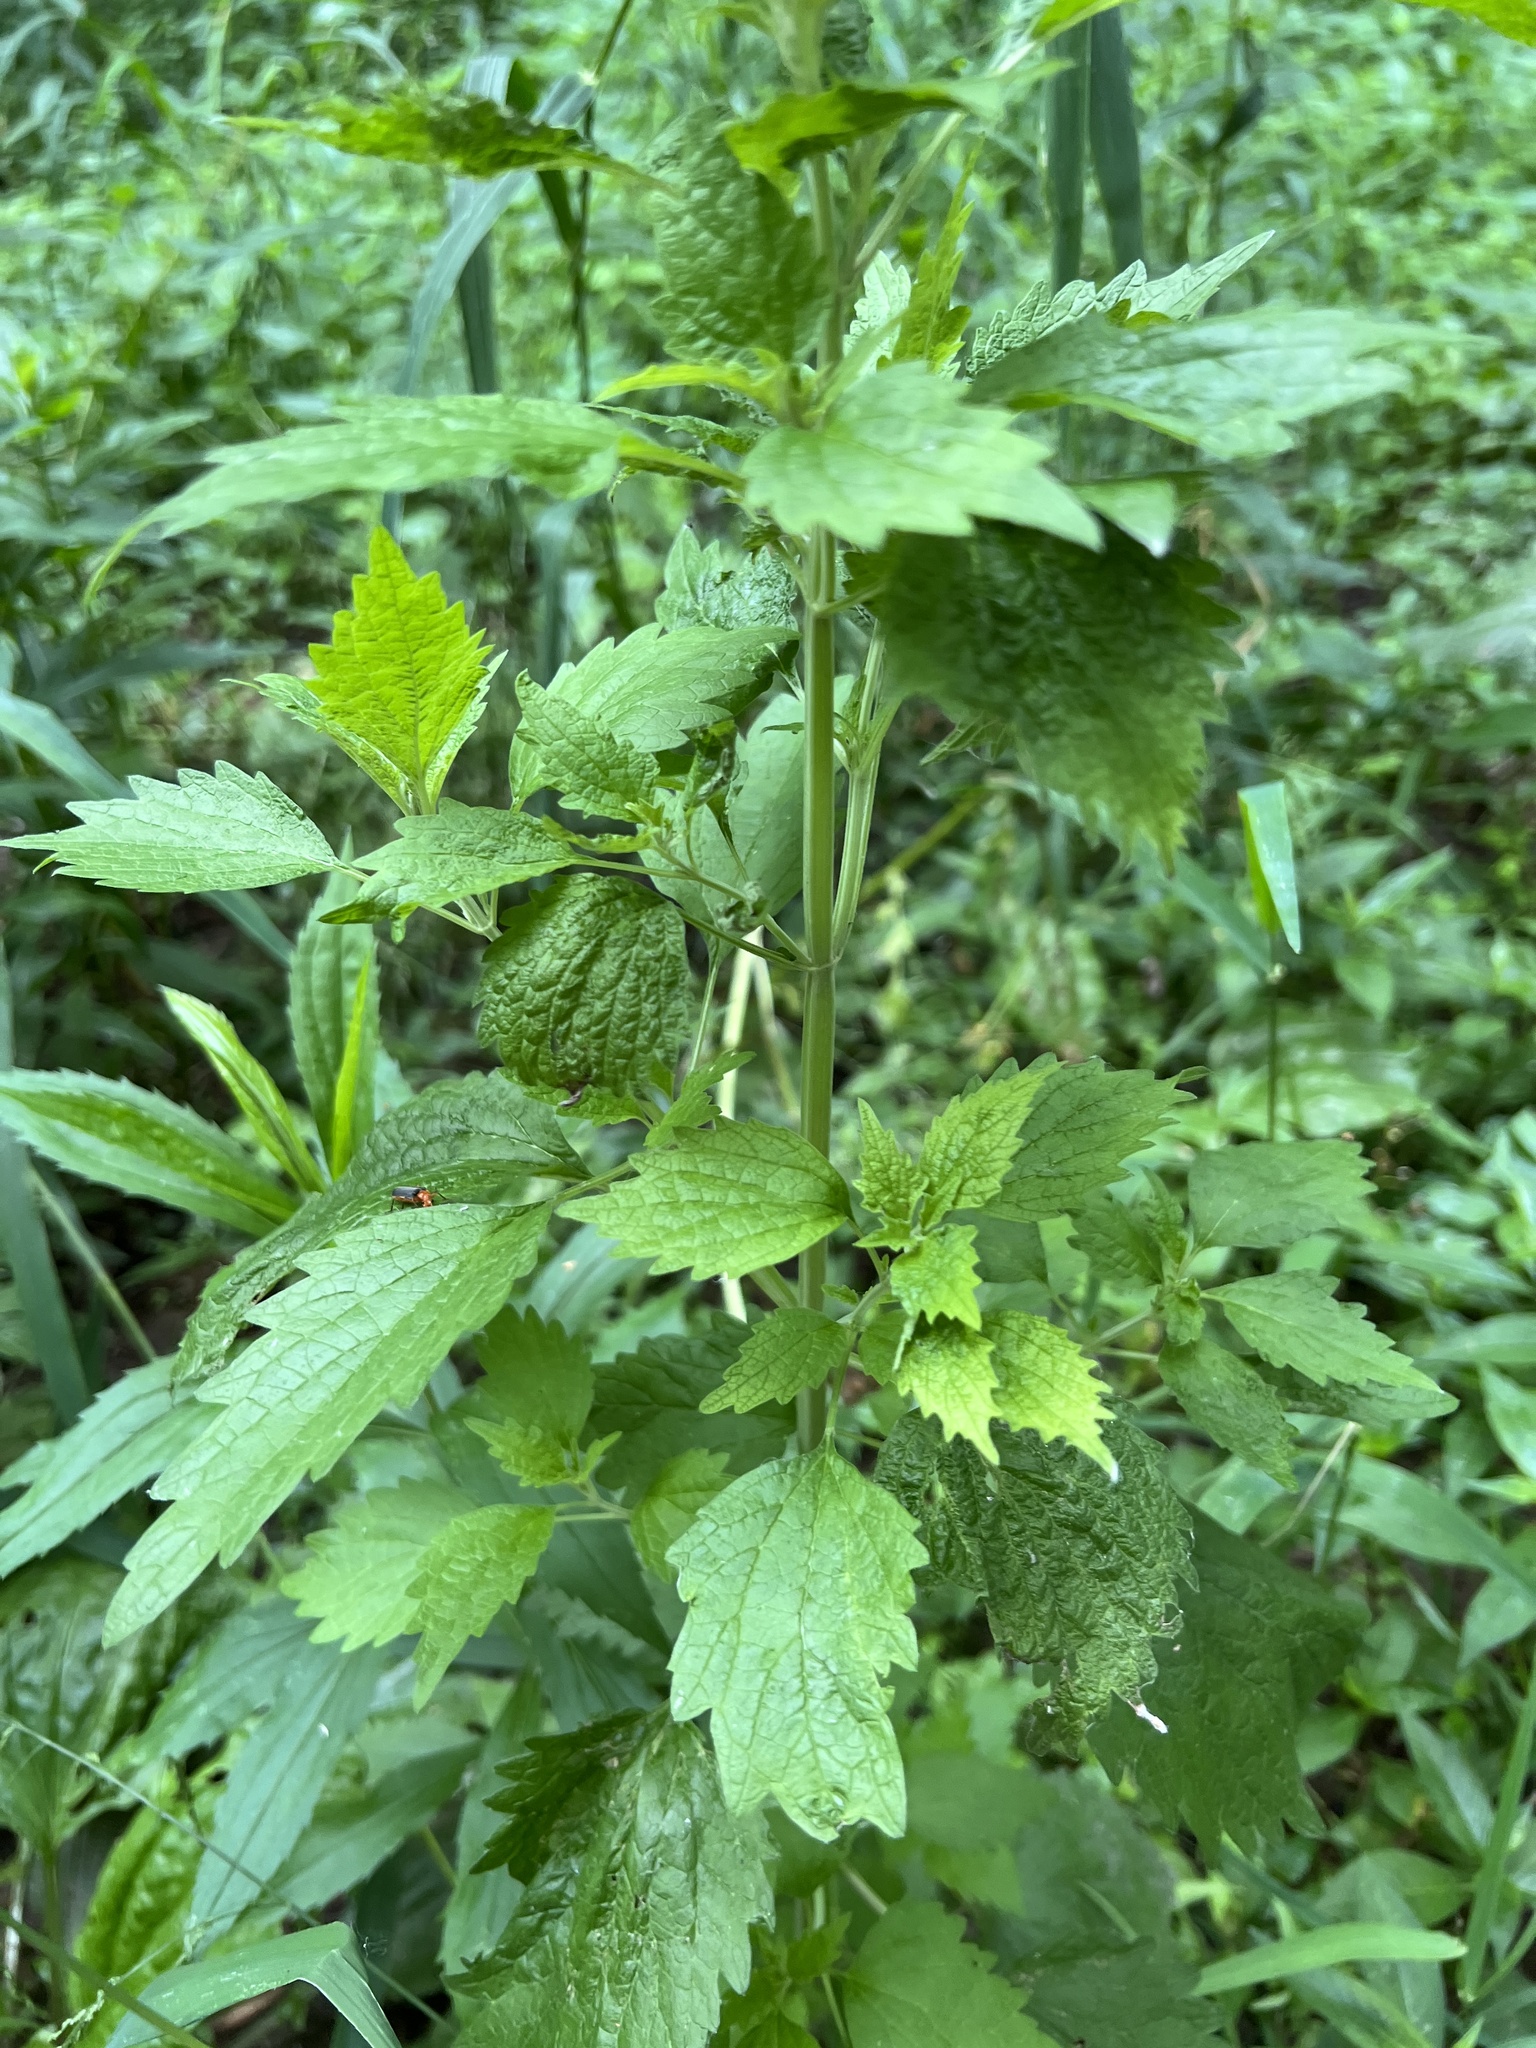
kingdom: Plantae
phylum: Tracheophyta
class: Magnoliopsida
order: Lamiales
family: Lamiaceae
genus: Chaiturus
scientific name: Chaiturus marrubiastrum
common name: Lion's tail
